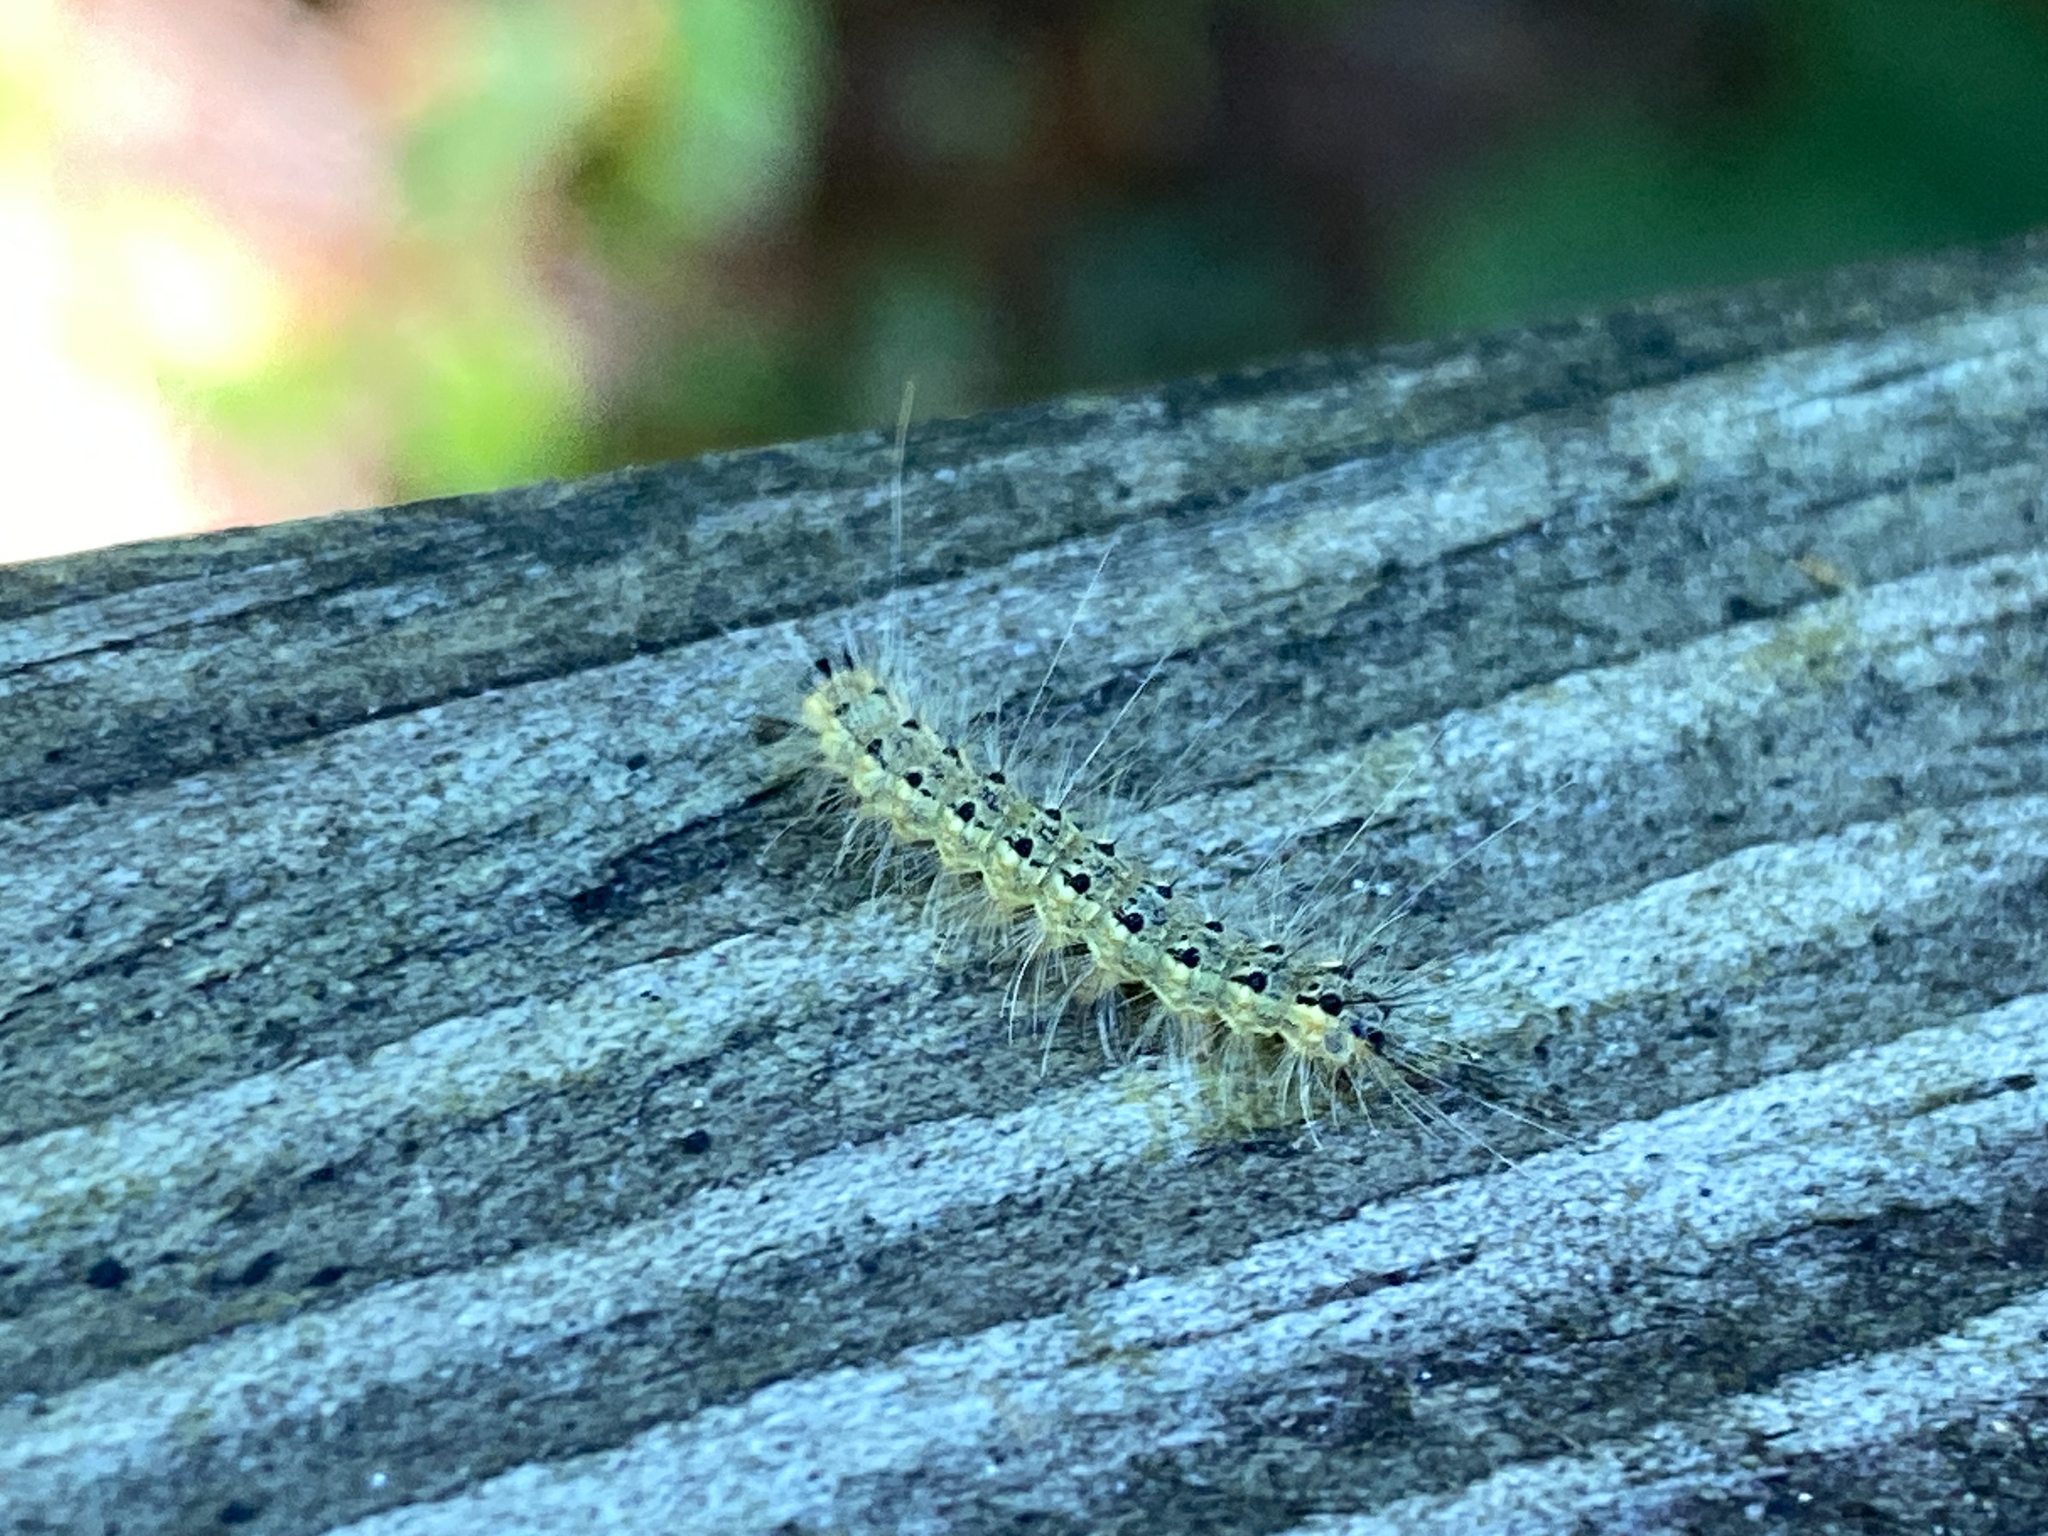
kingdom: Animalia
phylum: Arthropoda
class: Insecta
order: Lepidoptera
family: Erebidae
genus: Hyphantria
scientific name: Hyphantria cunea
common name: American white moth
